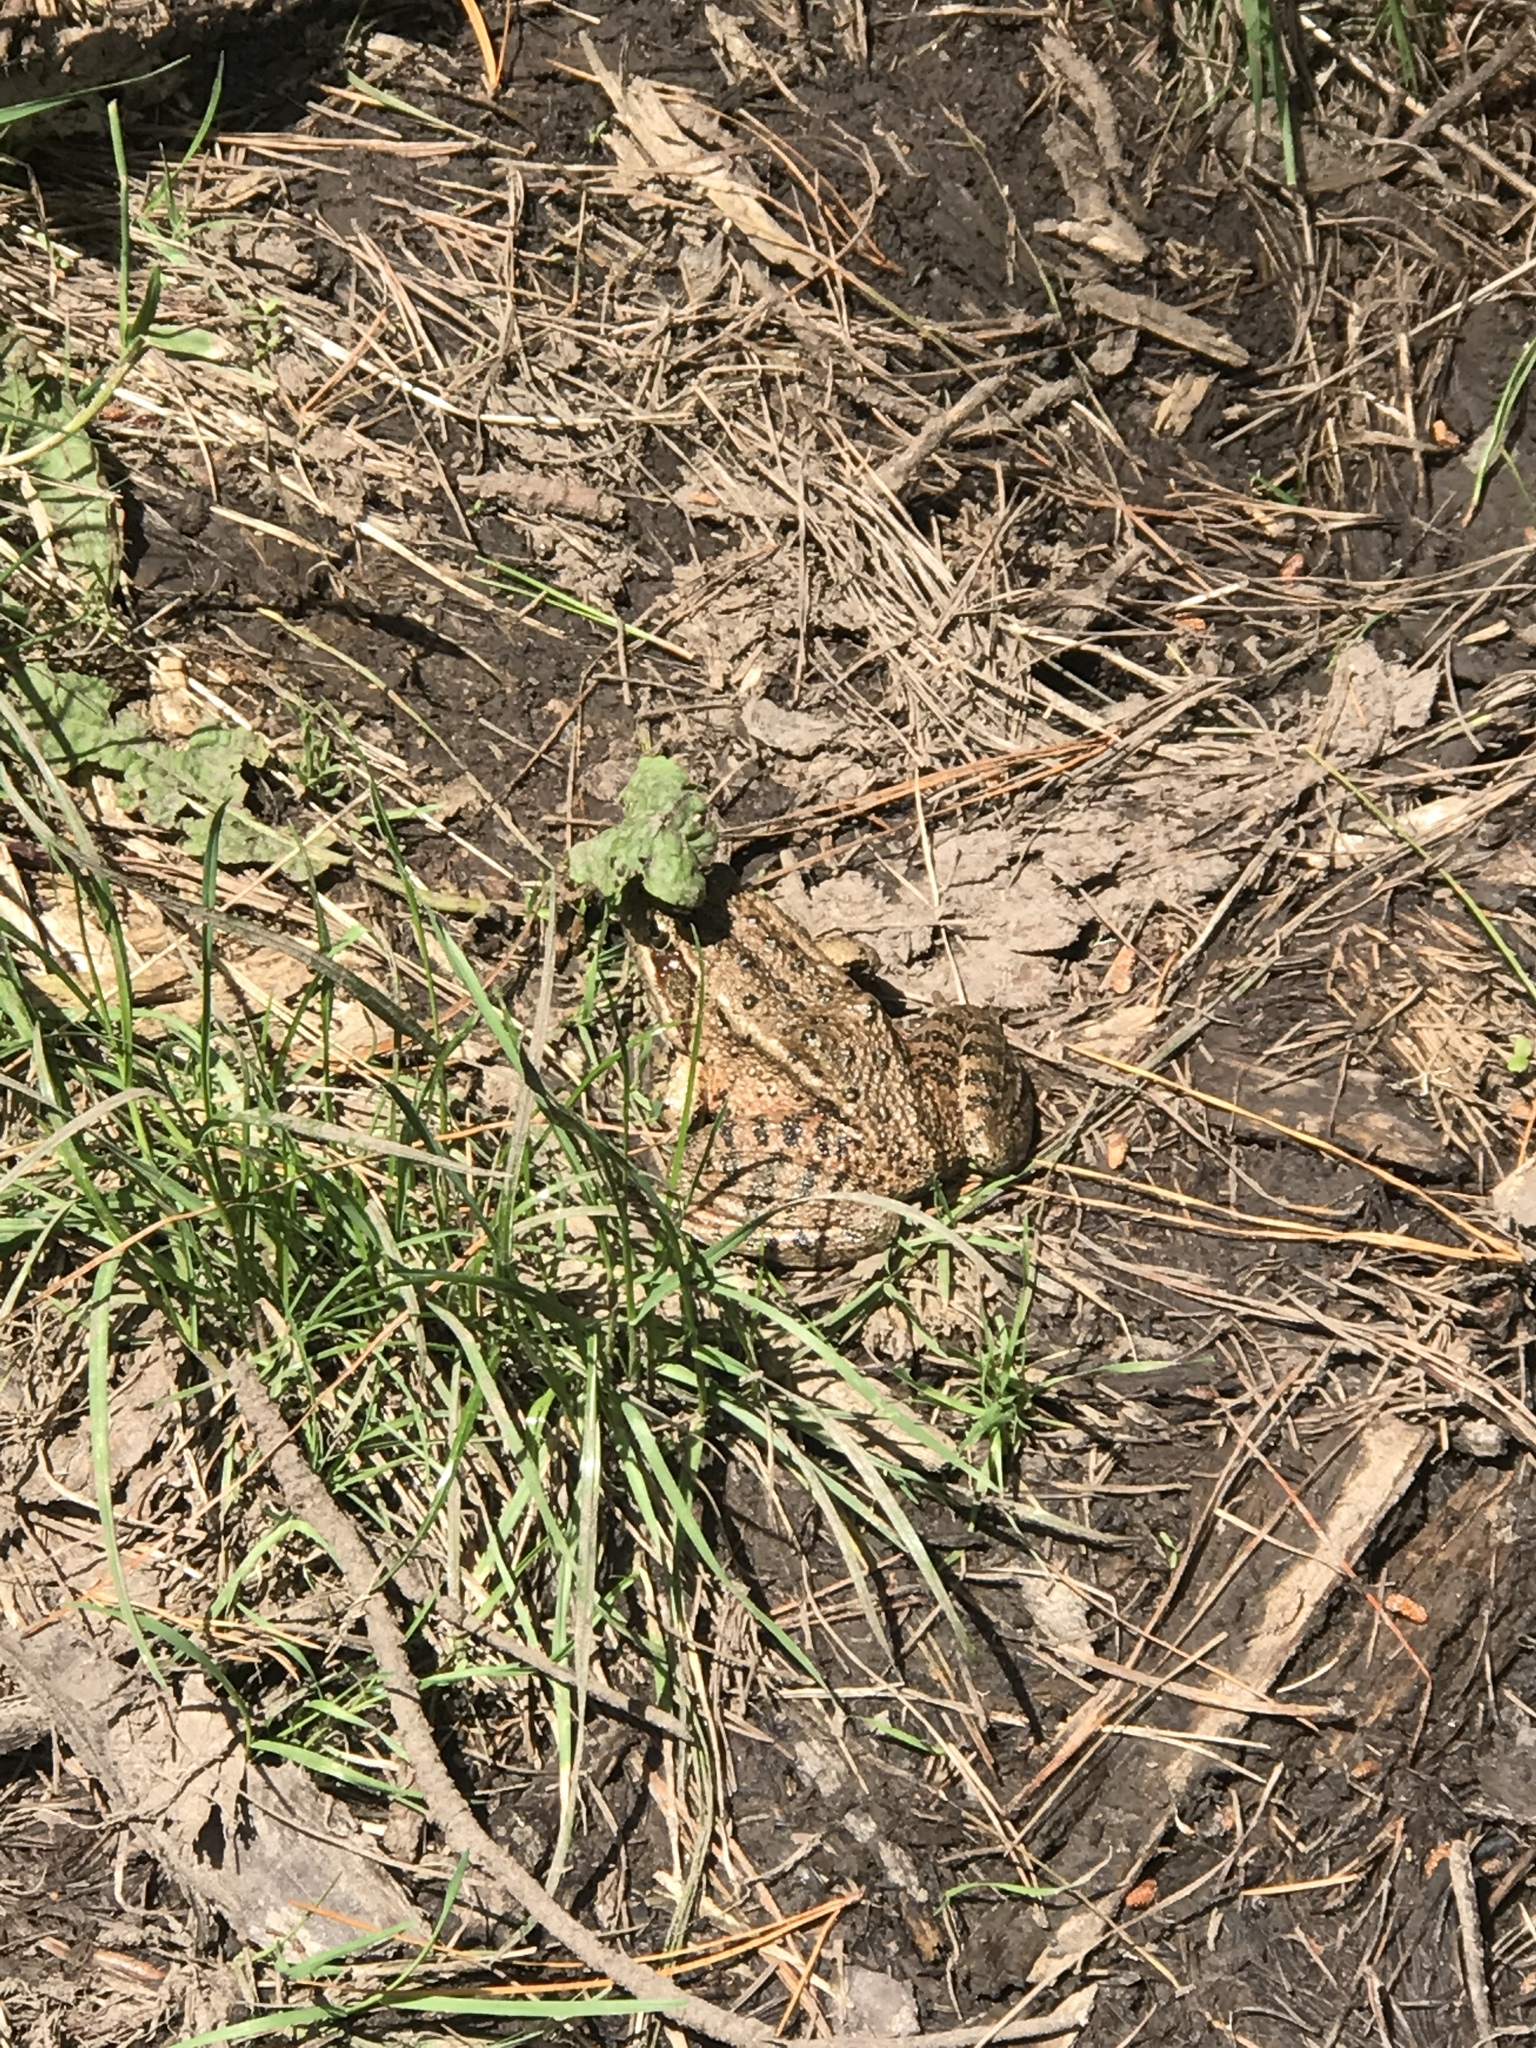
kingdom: Animalia
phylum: Chordata
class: Amphibia
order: Anura
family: Ranidae
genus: Rana
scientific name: Rana draytonii
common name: California red-legged frog
